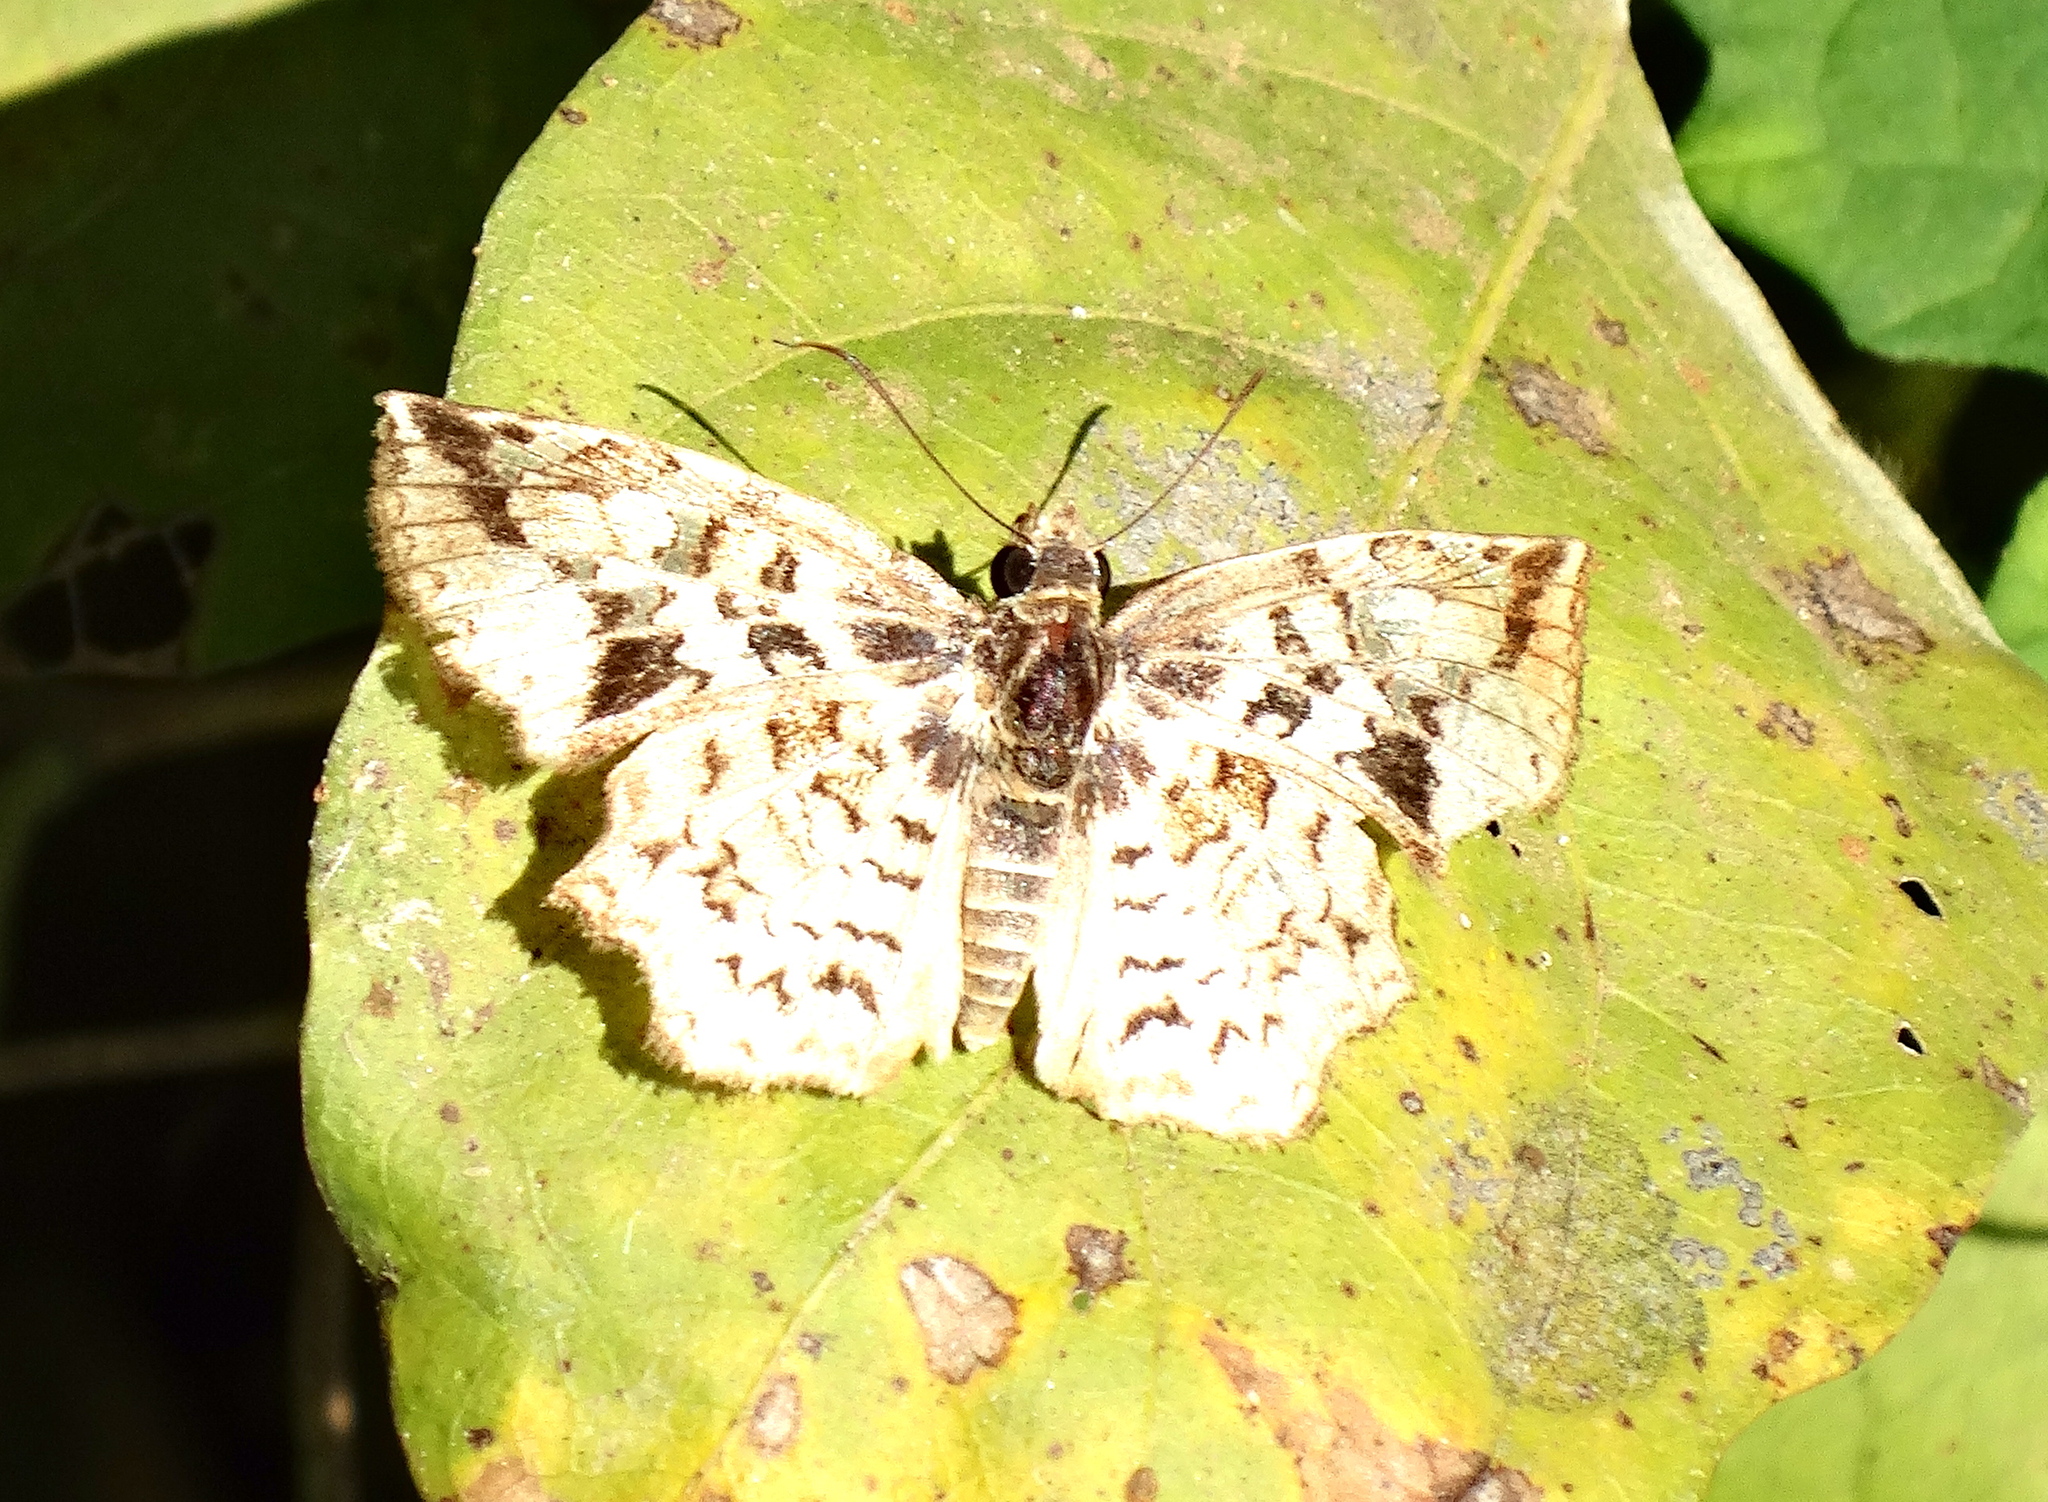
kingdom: Animalia
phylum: Arthropoda
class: Insecta
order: Lepidoptera
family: Hesperiidae
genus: Pyrginae
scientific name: Pyrginae
